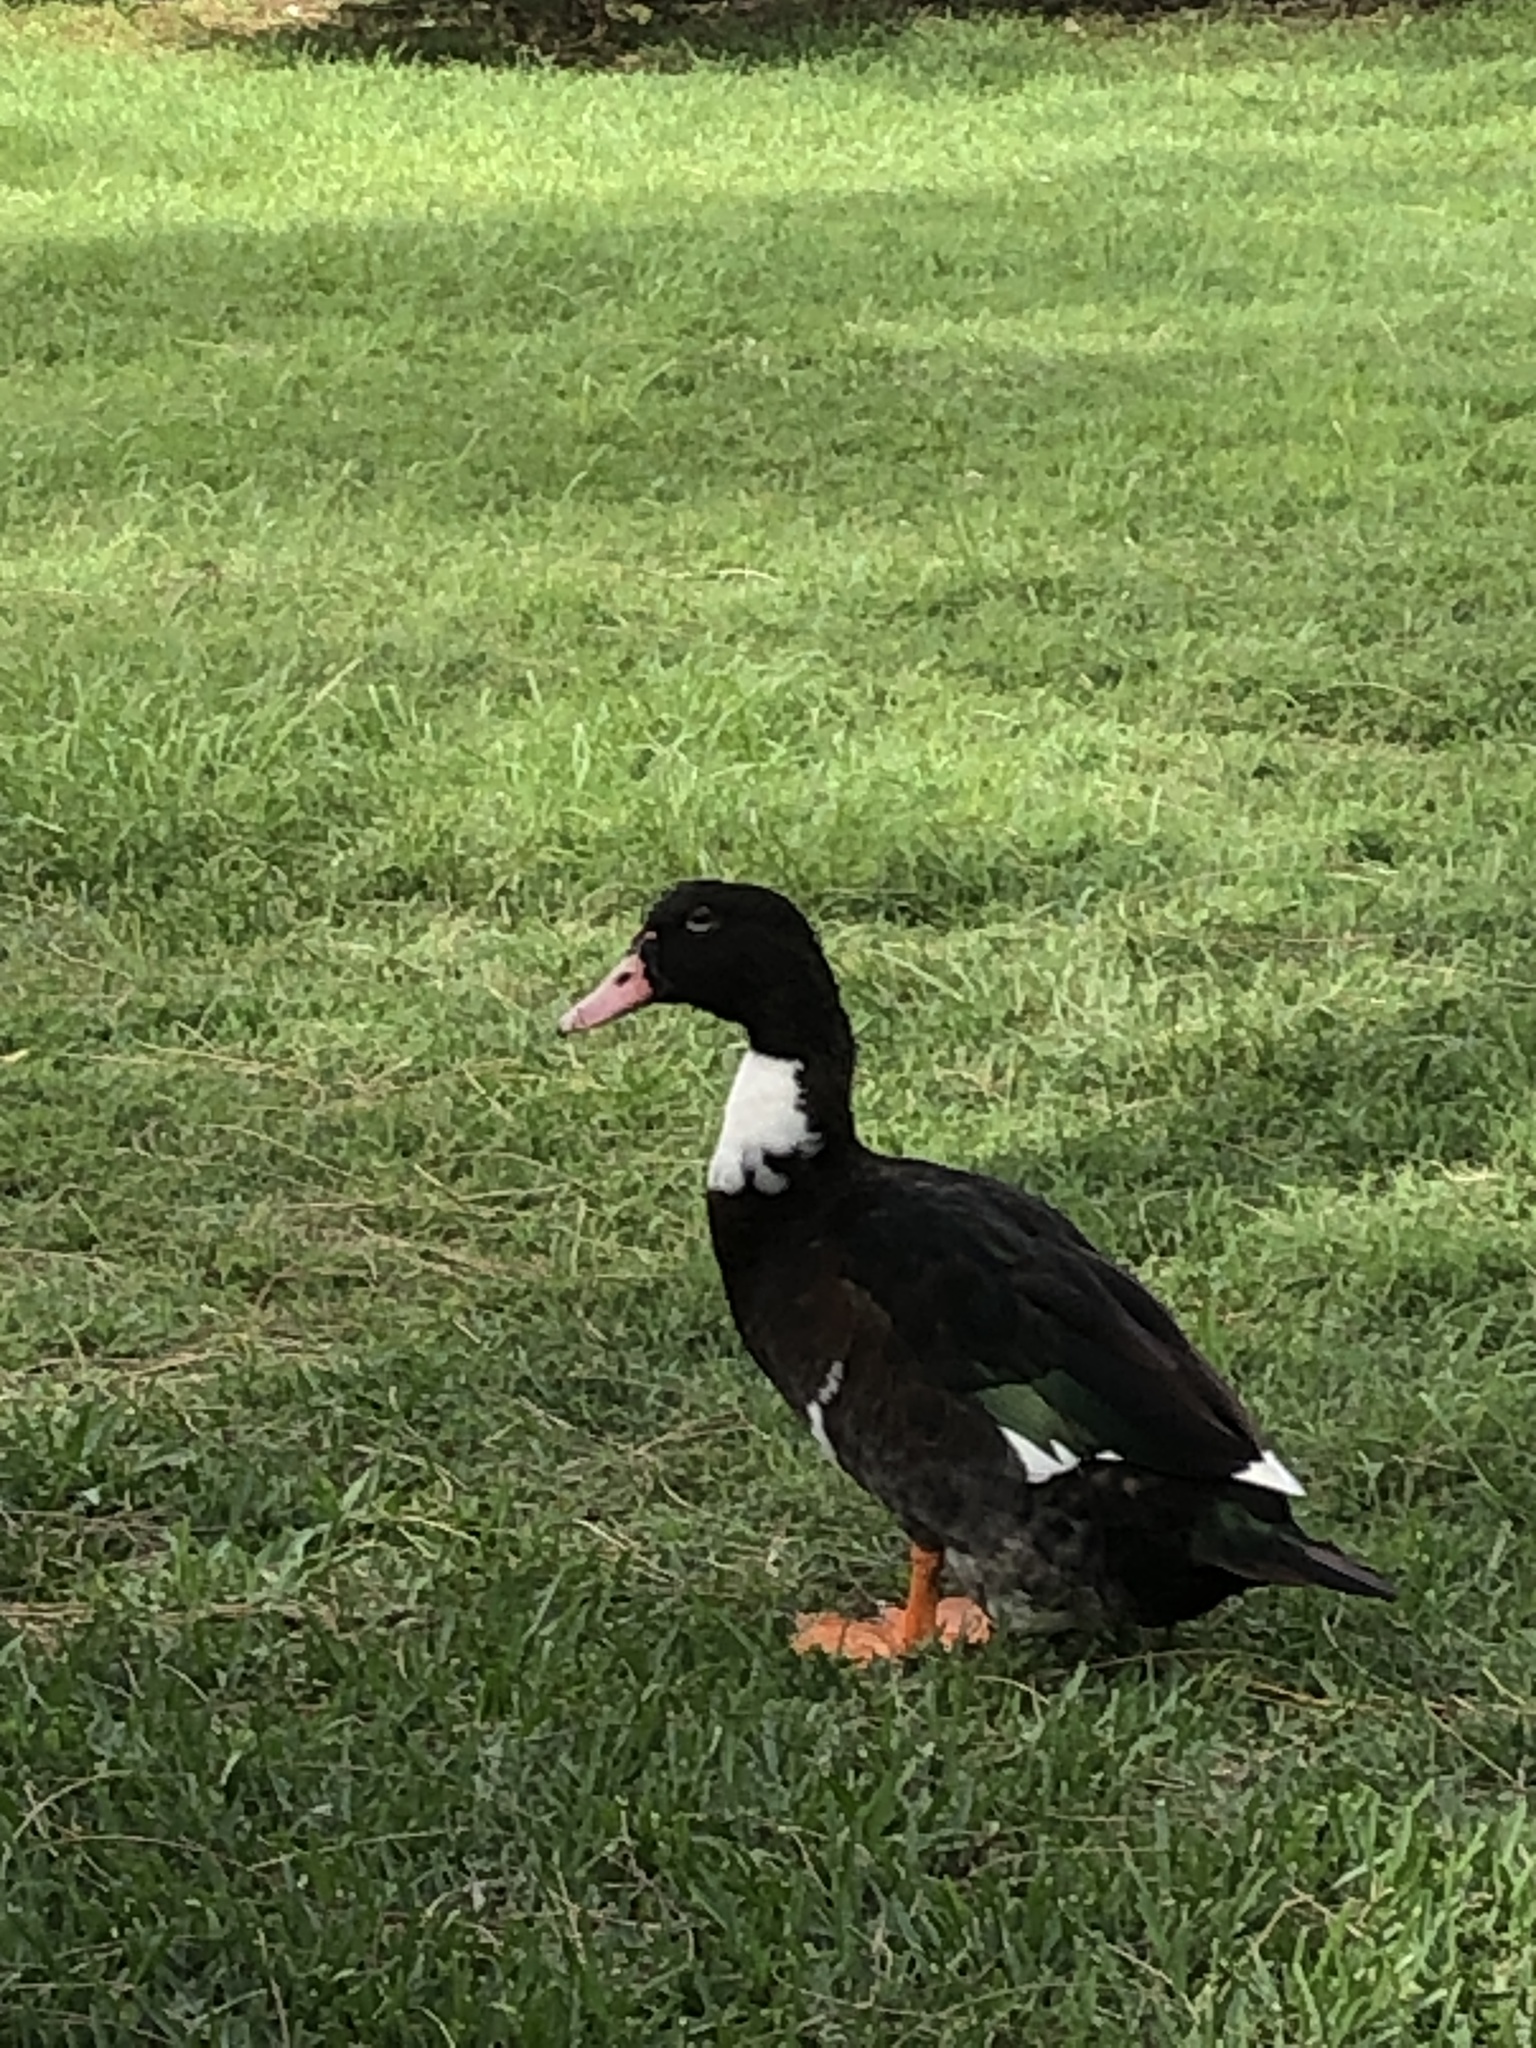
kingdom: Animalia
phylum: Chordata
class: Aves
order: Anseriformes
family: Anatidae
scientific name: Anatidae
